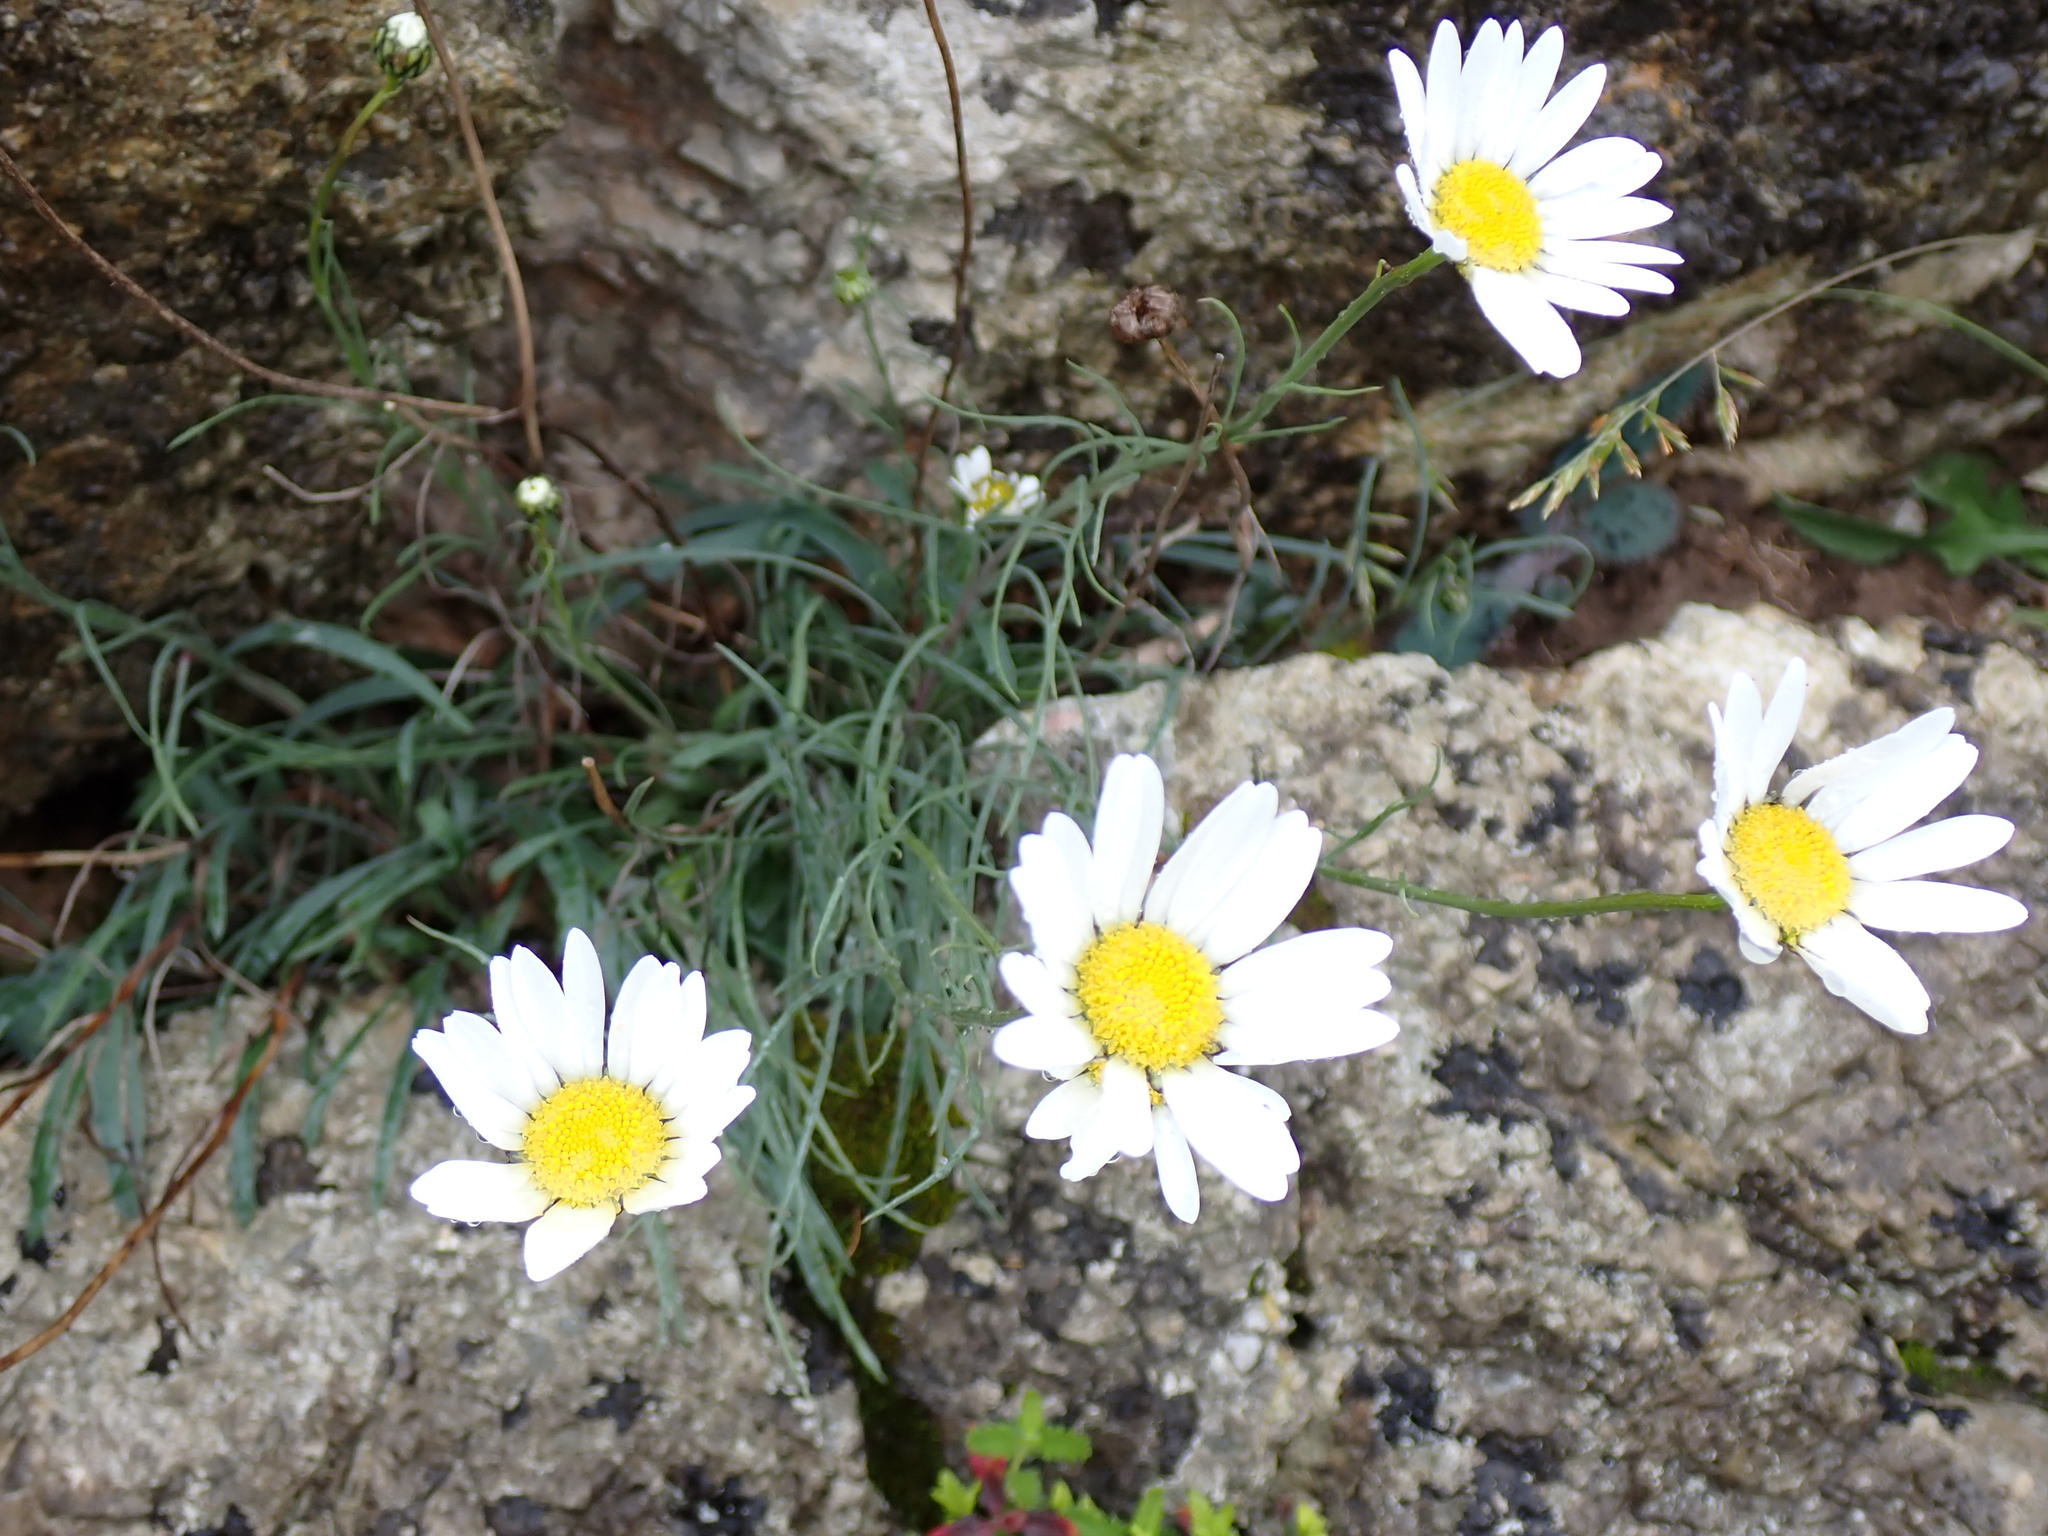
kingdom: Plantae
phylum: Tracheophyta
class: Magnoliopsida
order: Asterales
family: Asteraceae
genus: Leucanthemum
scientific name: Leucanthemum graminifolium
